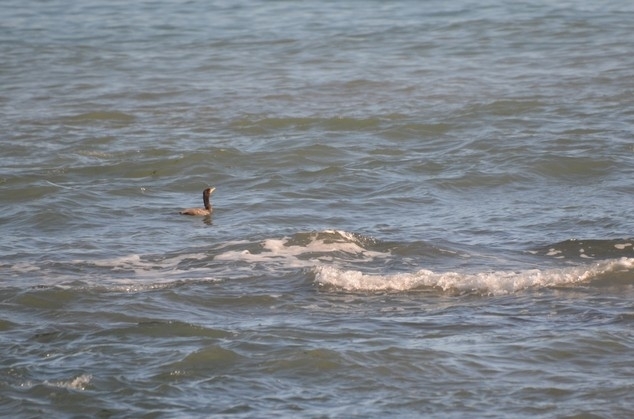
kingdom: Animalia
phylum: Chordata
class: Aves
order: Suliformes
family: Phalacrocoracidae
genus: Phalacrocorax
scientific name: Phalacrocorax brasilianus
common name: Neotropic cormorant
